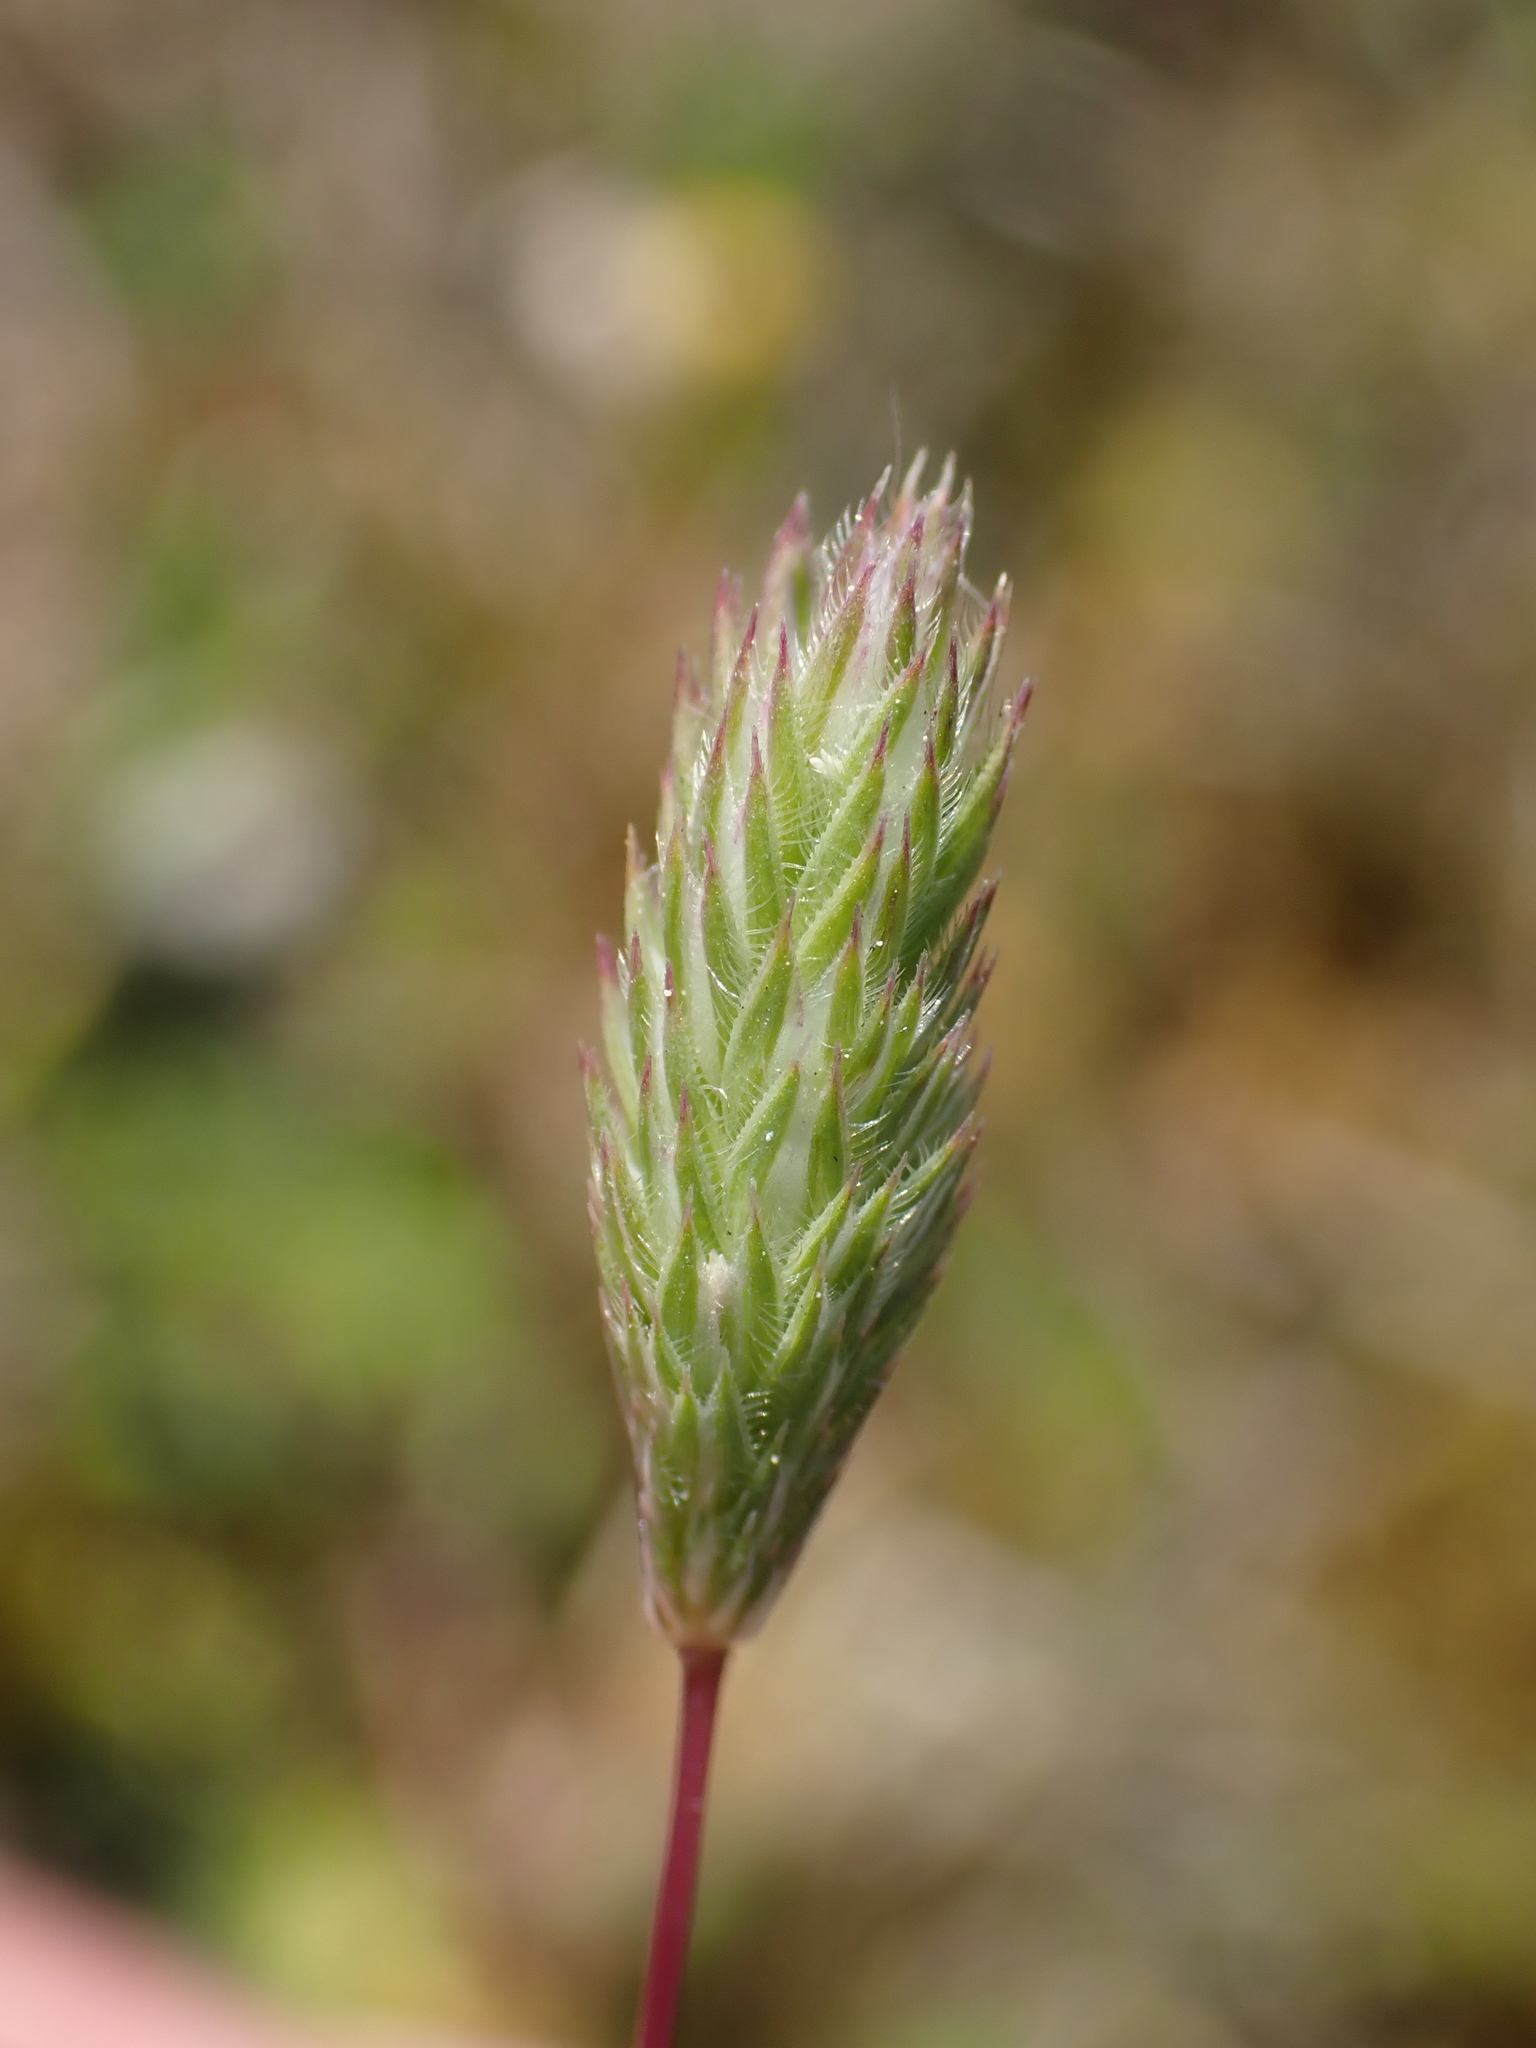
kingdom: Plantae
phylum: Tracheophyta
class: Liliopsida
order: Poales
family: Poaceae
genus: Phleum
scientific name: Phleum arenarium
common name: Sand cat's-tail
